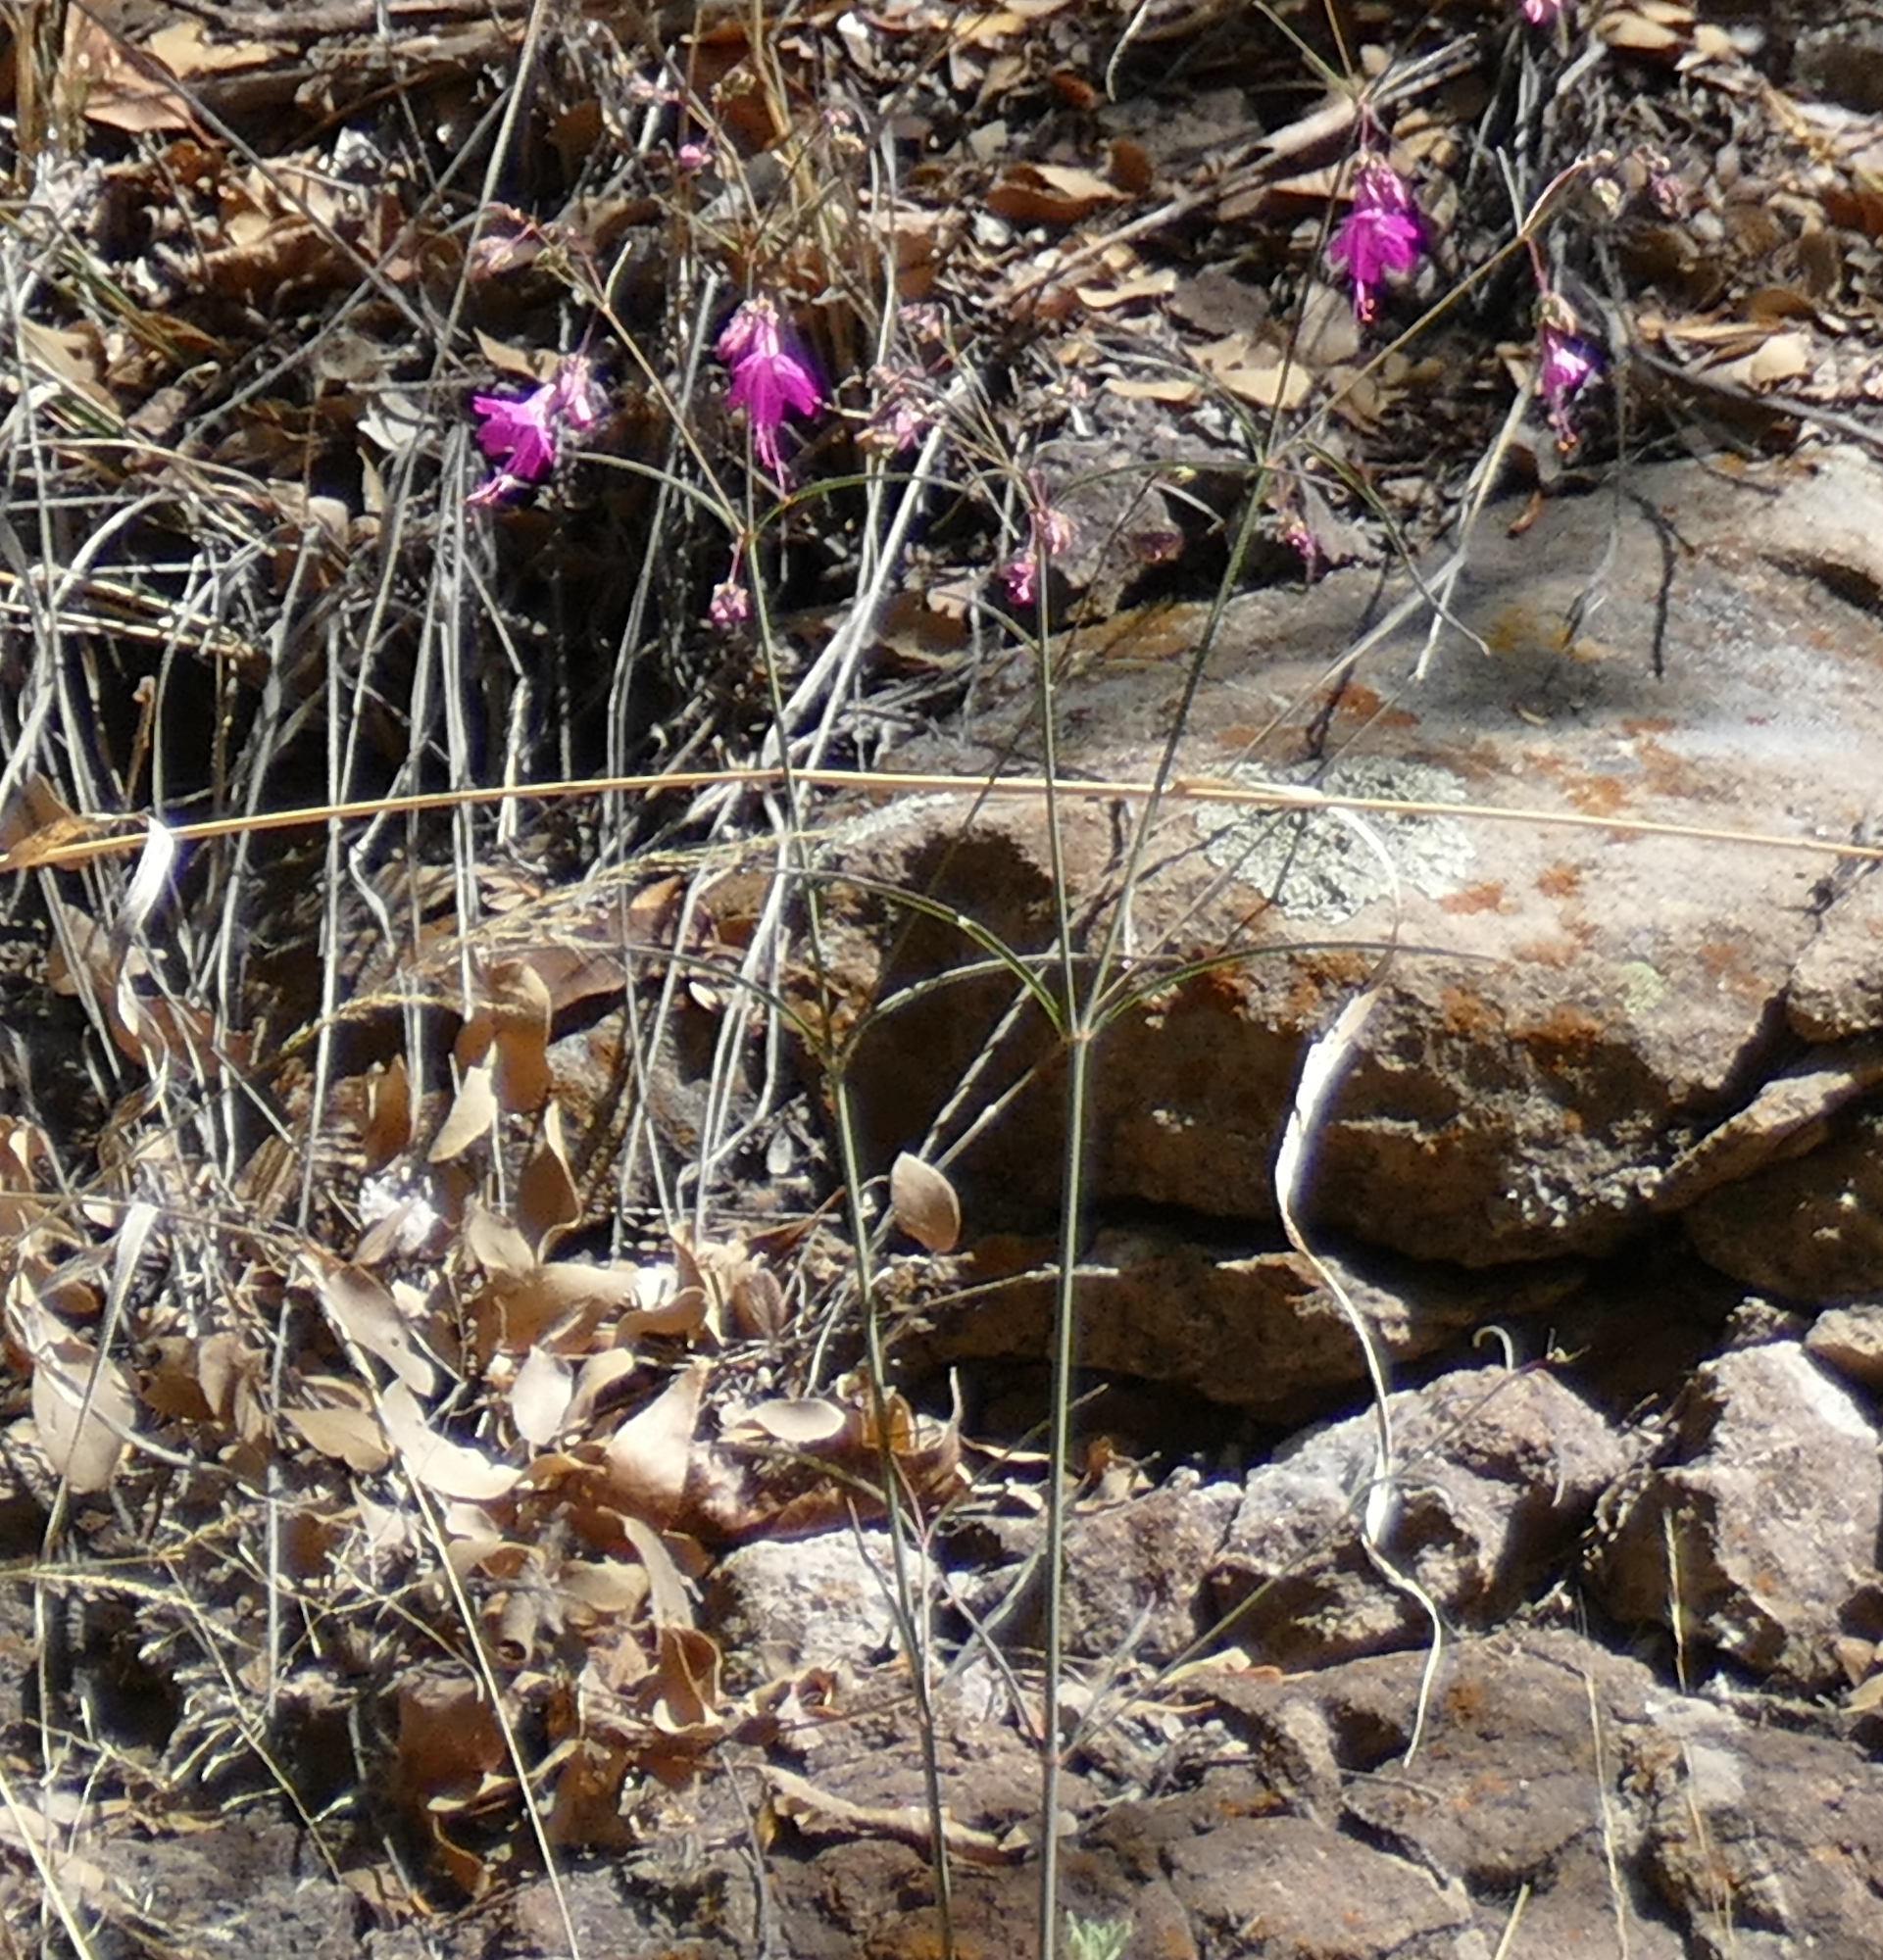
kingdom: Plantae
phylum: Tracheophyta
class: Magnoliopsida
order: Caryophyllales
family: Nyctaginaceae
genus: Mirabilis
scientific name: Mirabilis coccinea
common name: Scarlet four-o'clock
